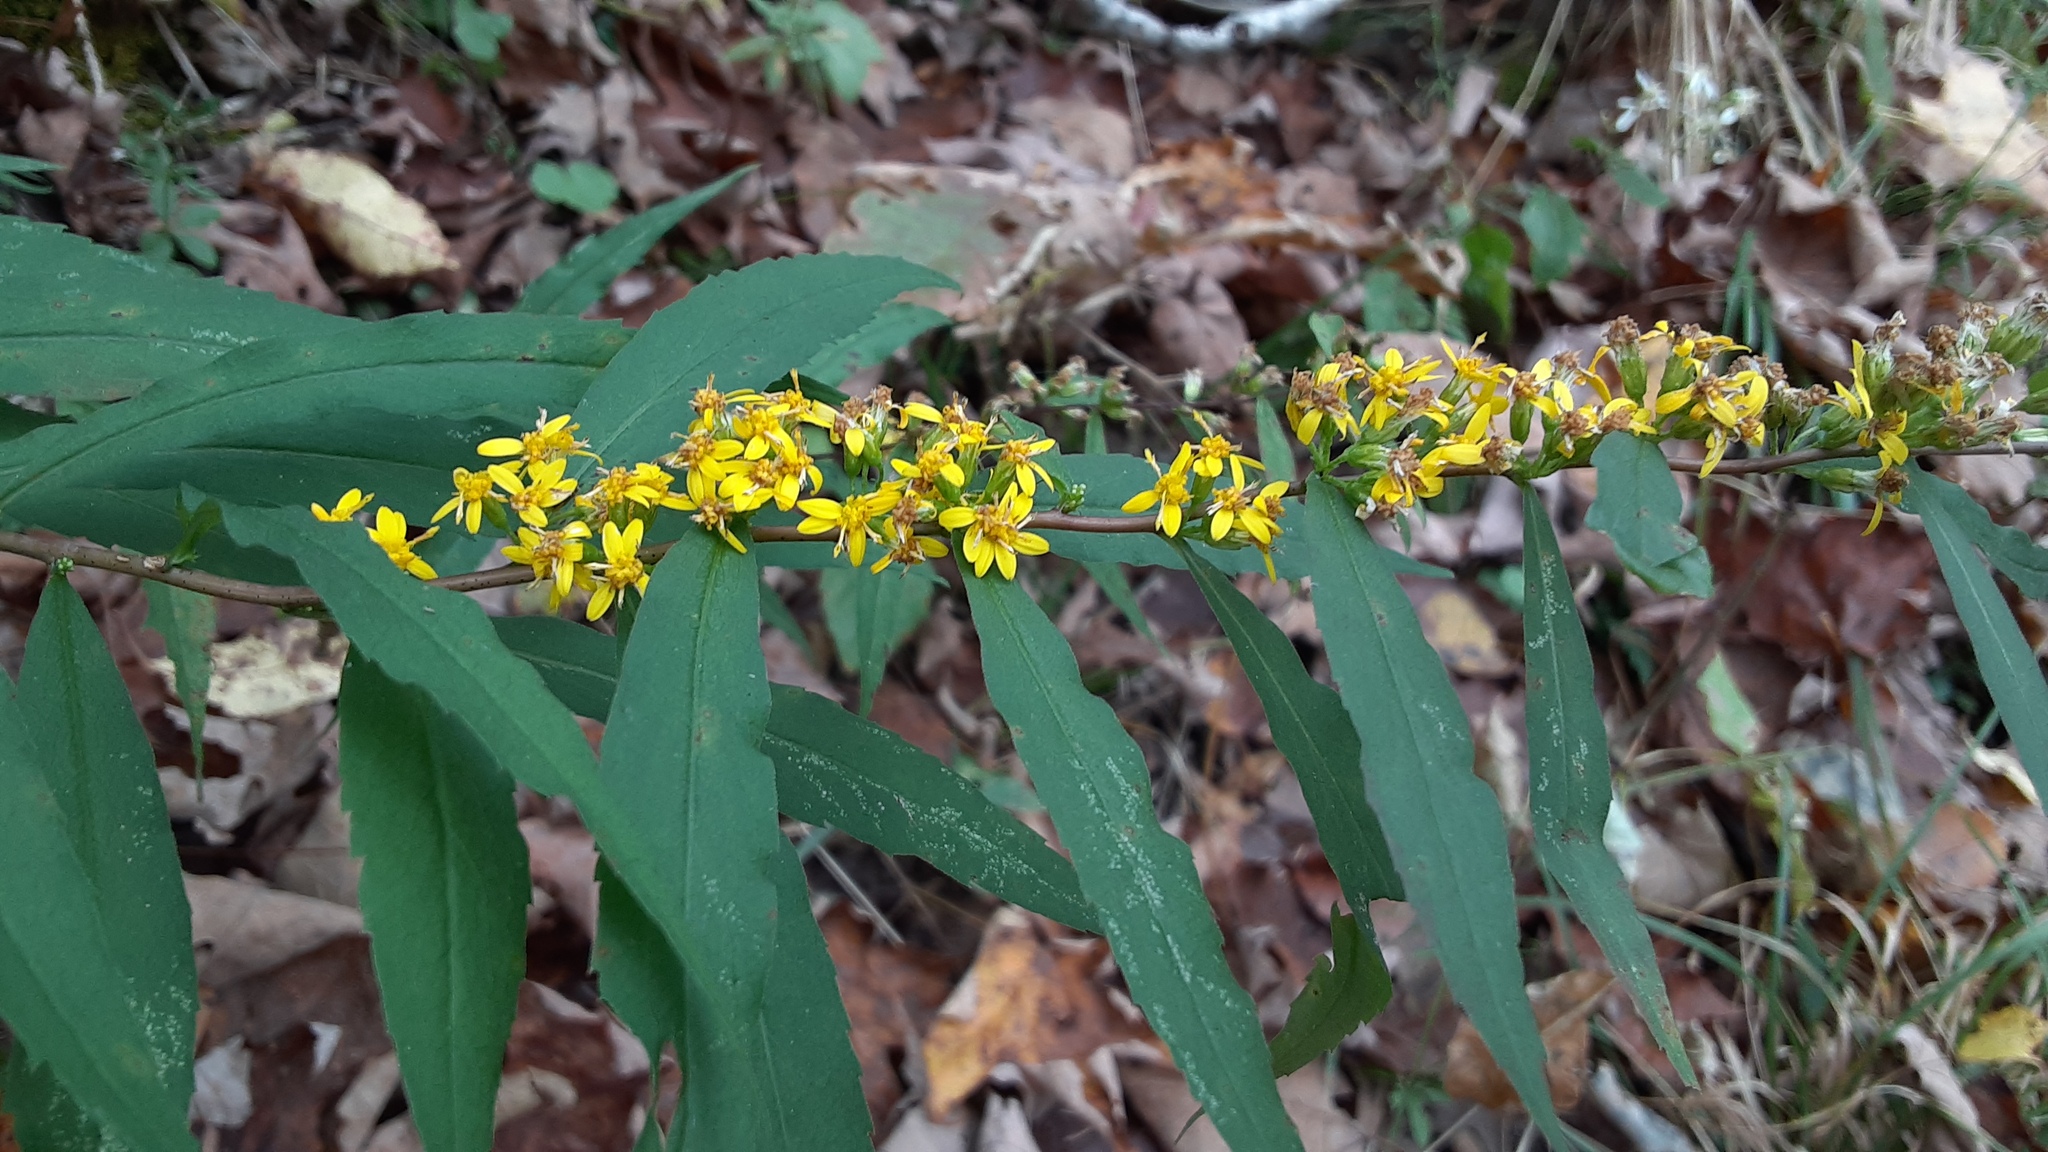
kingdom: Plantae
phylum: Tracheophyta
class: Magnoliopsida
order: Asterales
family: Asteraceae
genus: Solidago
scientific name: Solidago caesia
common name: Woodland goldenrod
